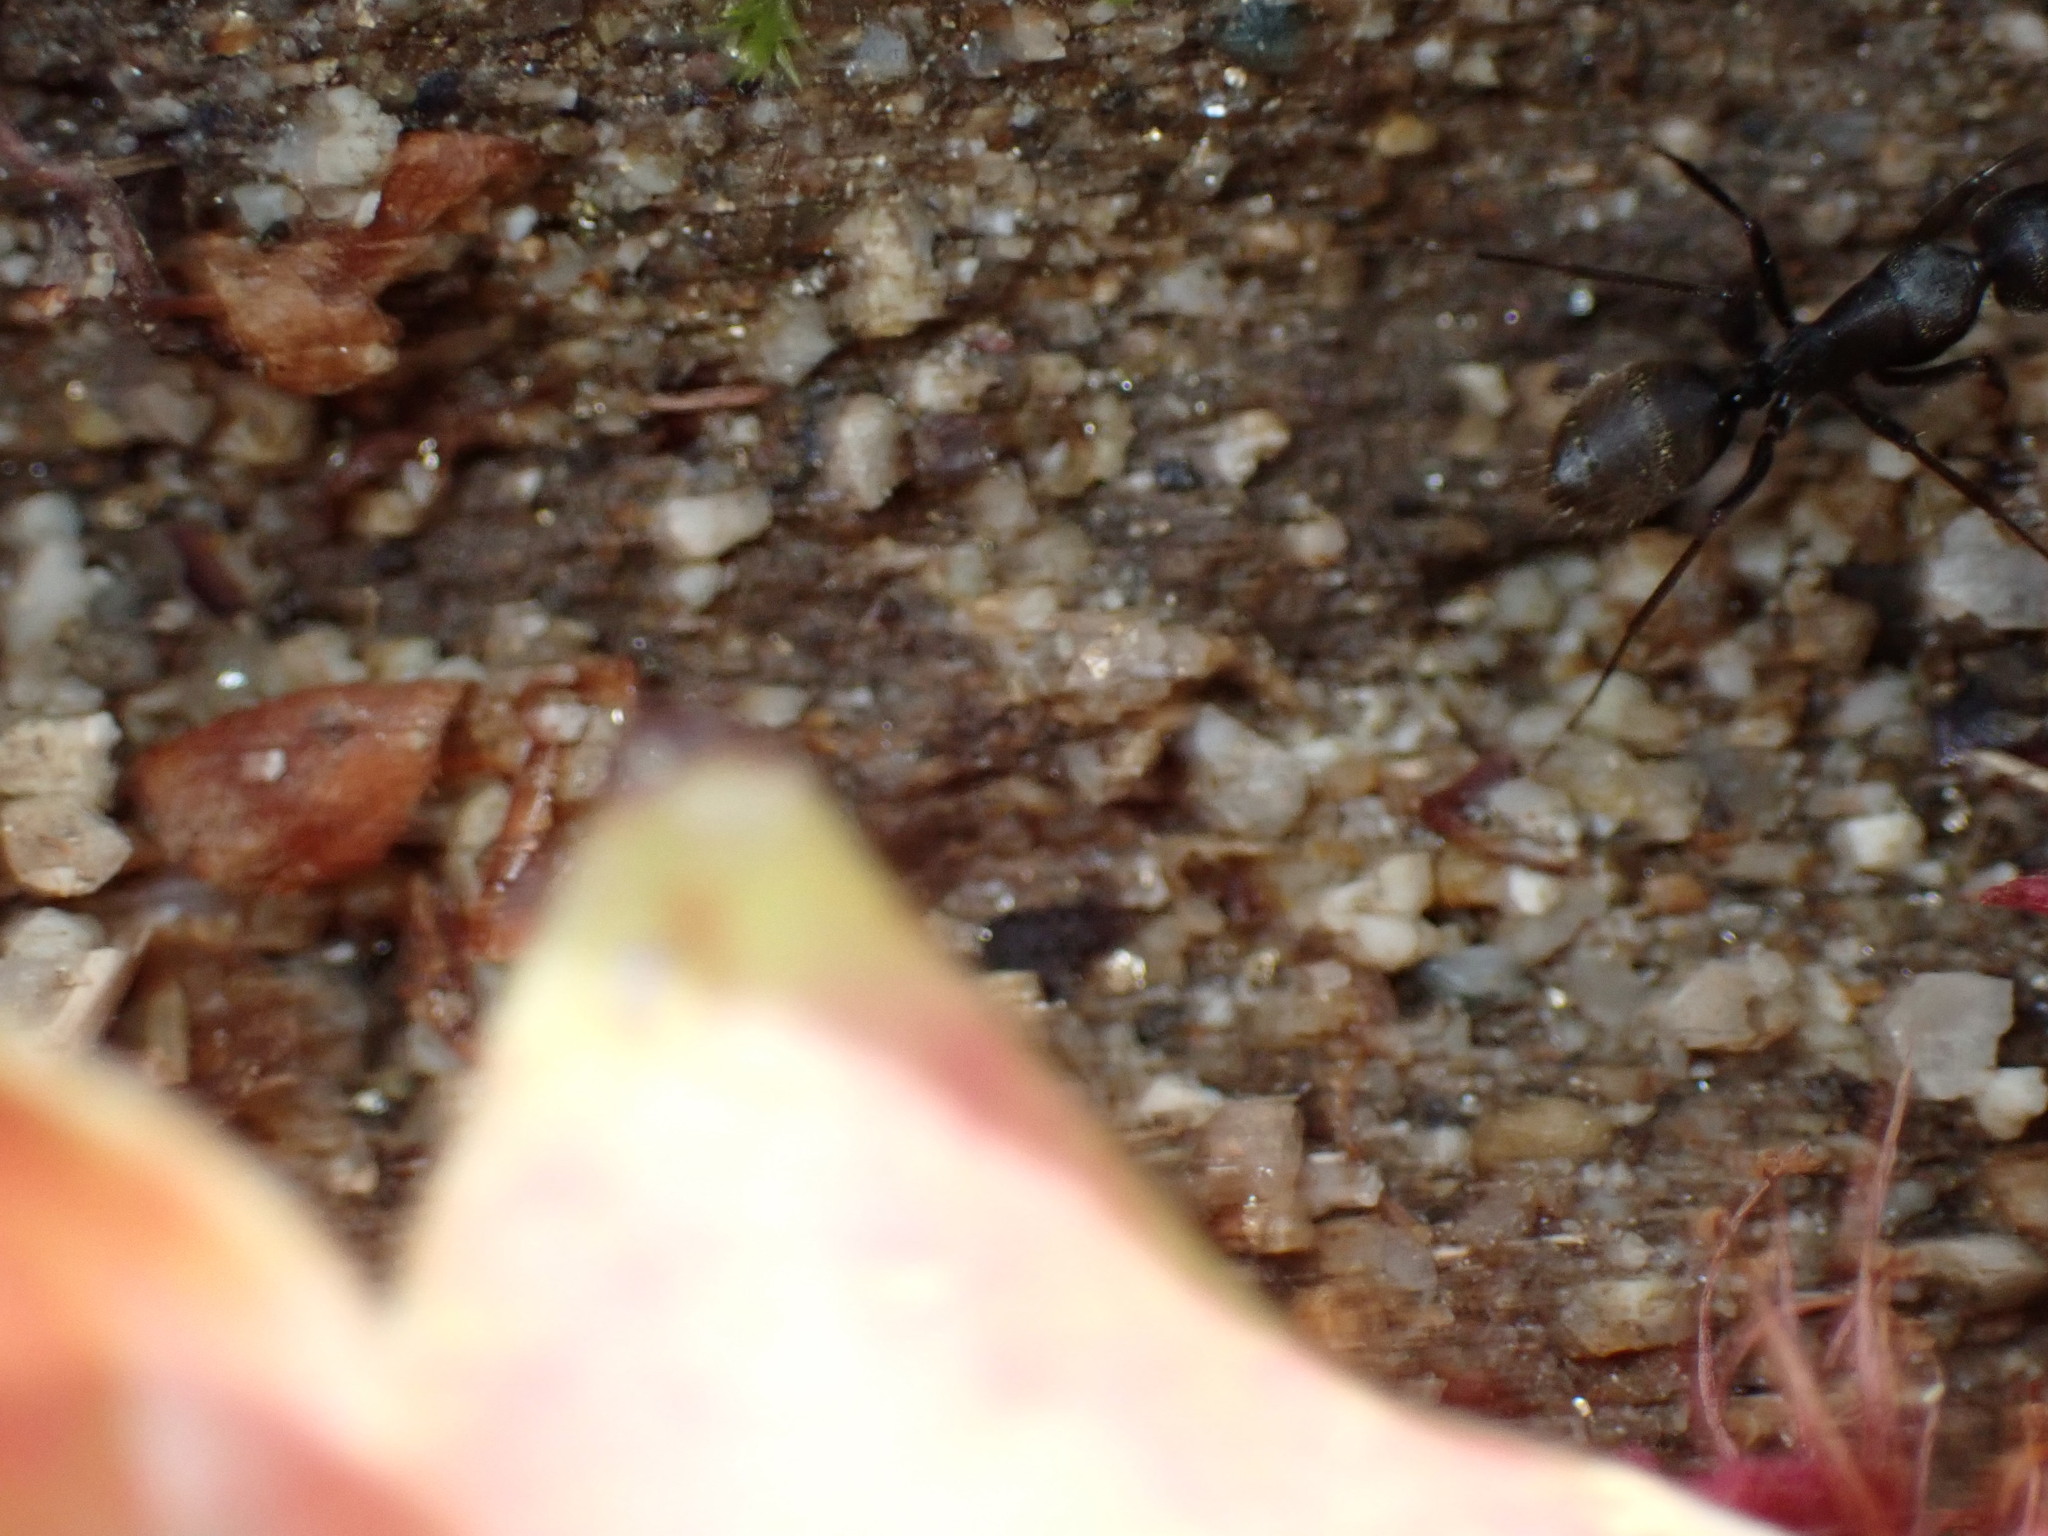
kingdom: Animalia
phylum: Arthropoda
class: Insecta
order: Hymenoptera
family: Formicidae
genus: Camponotus
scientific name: Camponotus japonicus
